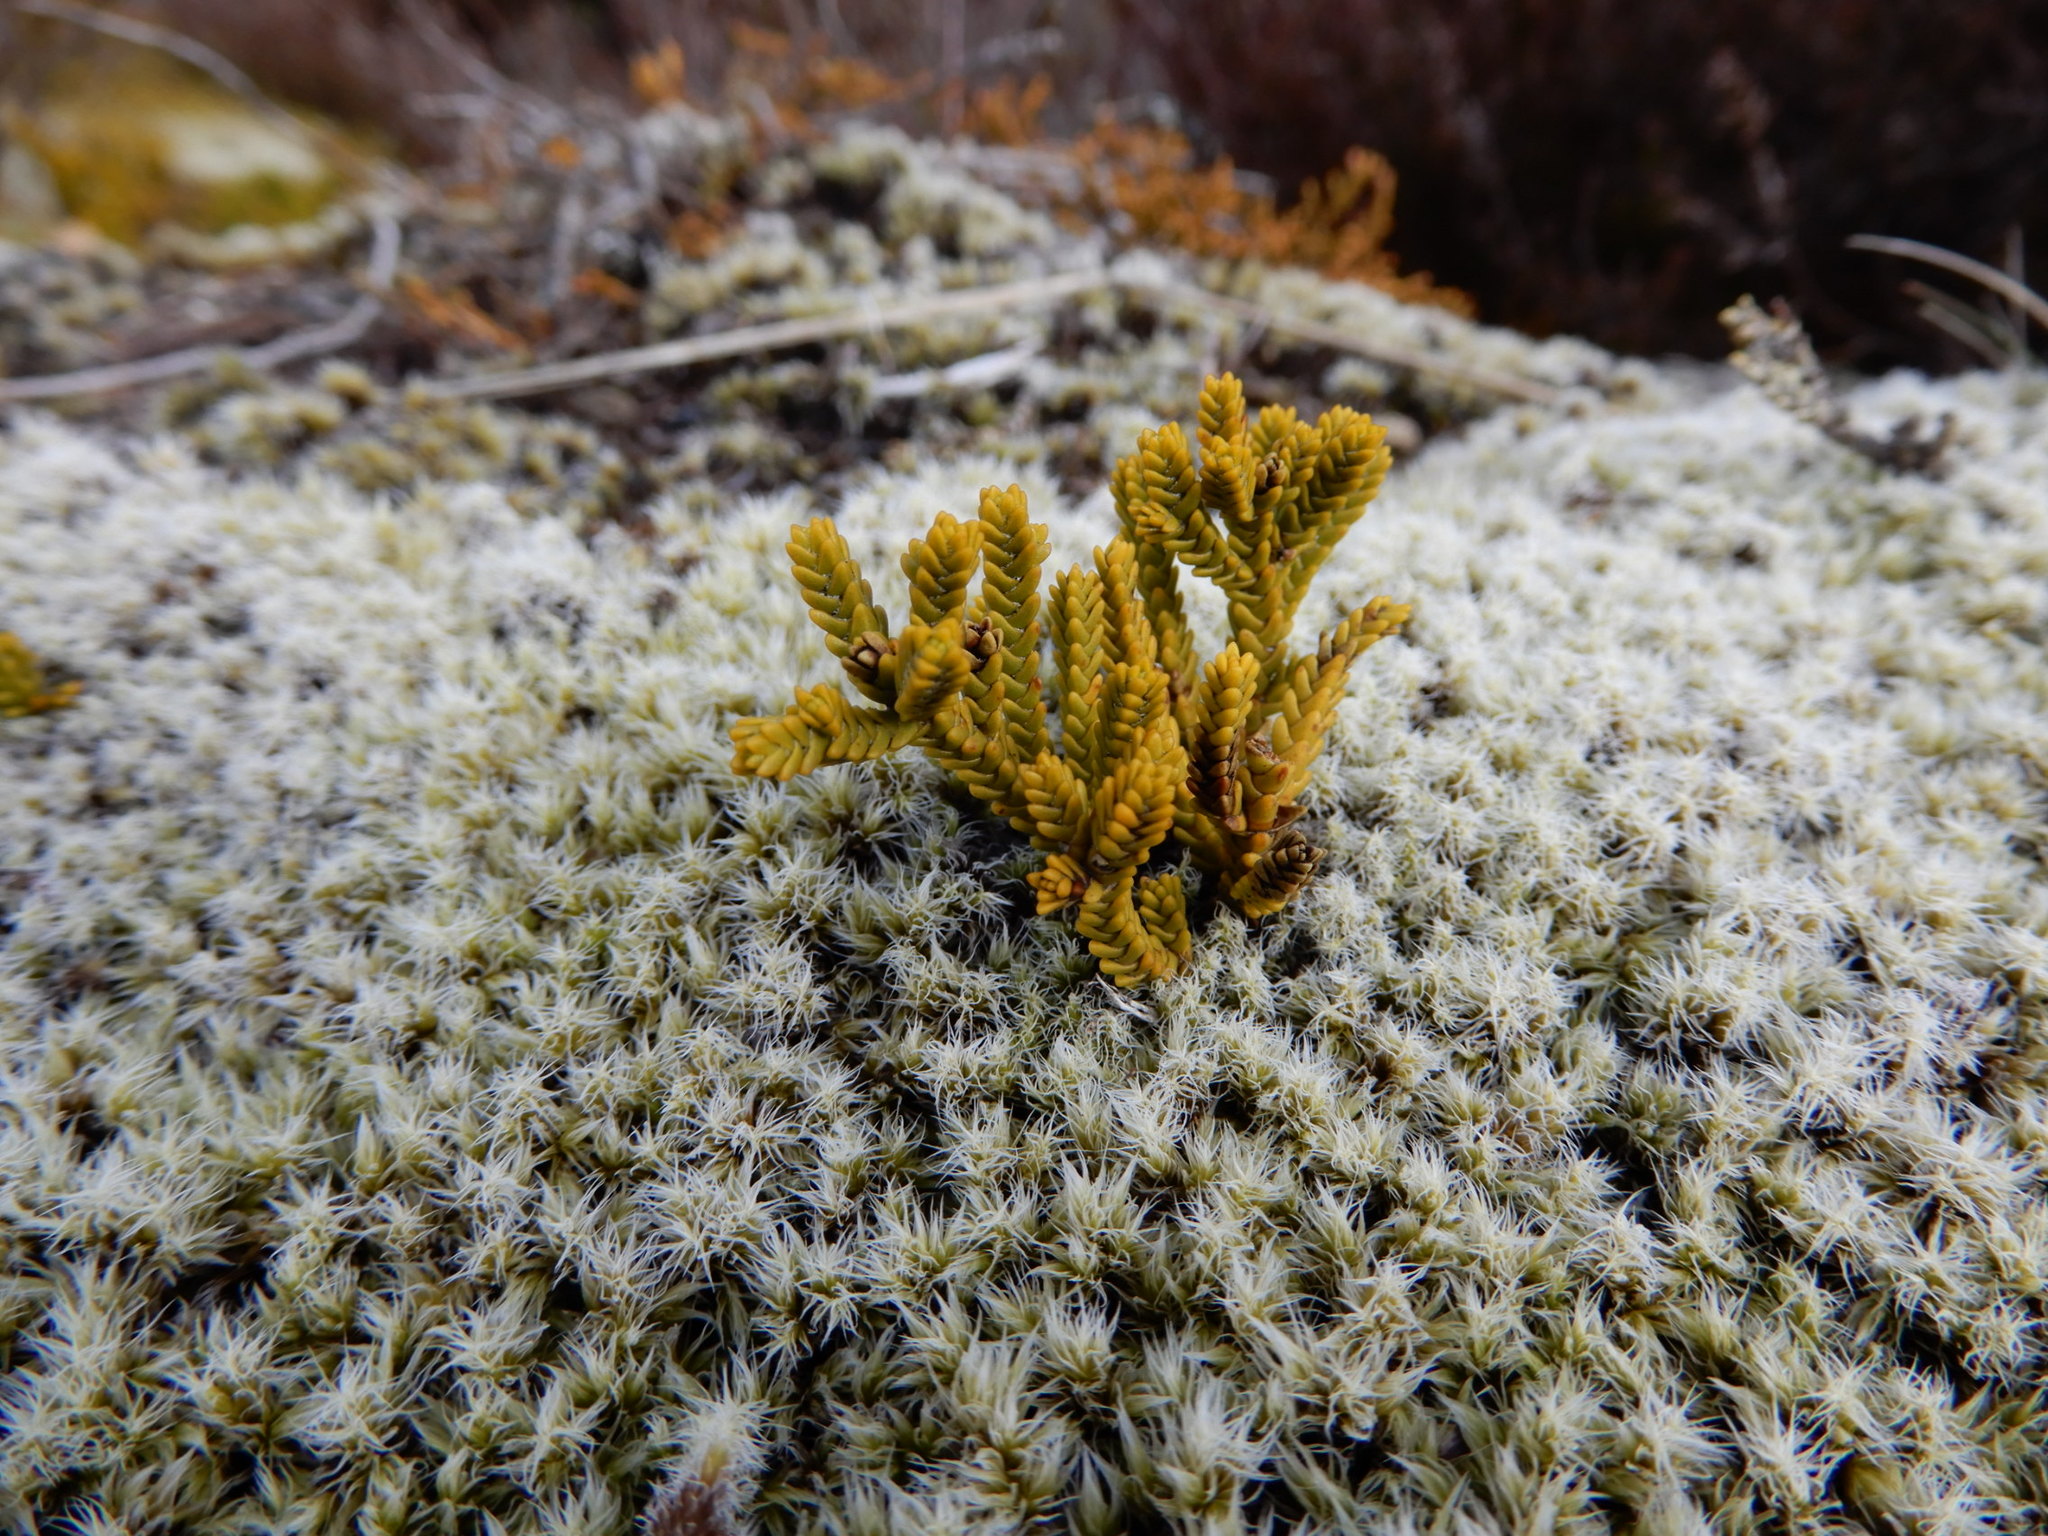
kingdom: Plantae
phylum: Tracheophyta
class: Magnoliopsida
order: Lamiales
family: Plantaginaceae
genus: Veronica
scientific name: Veronica tetragona
